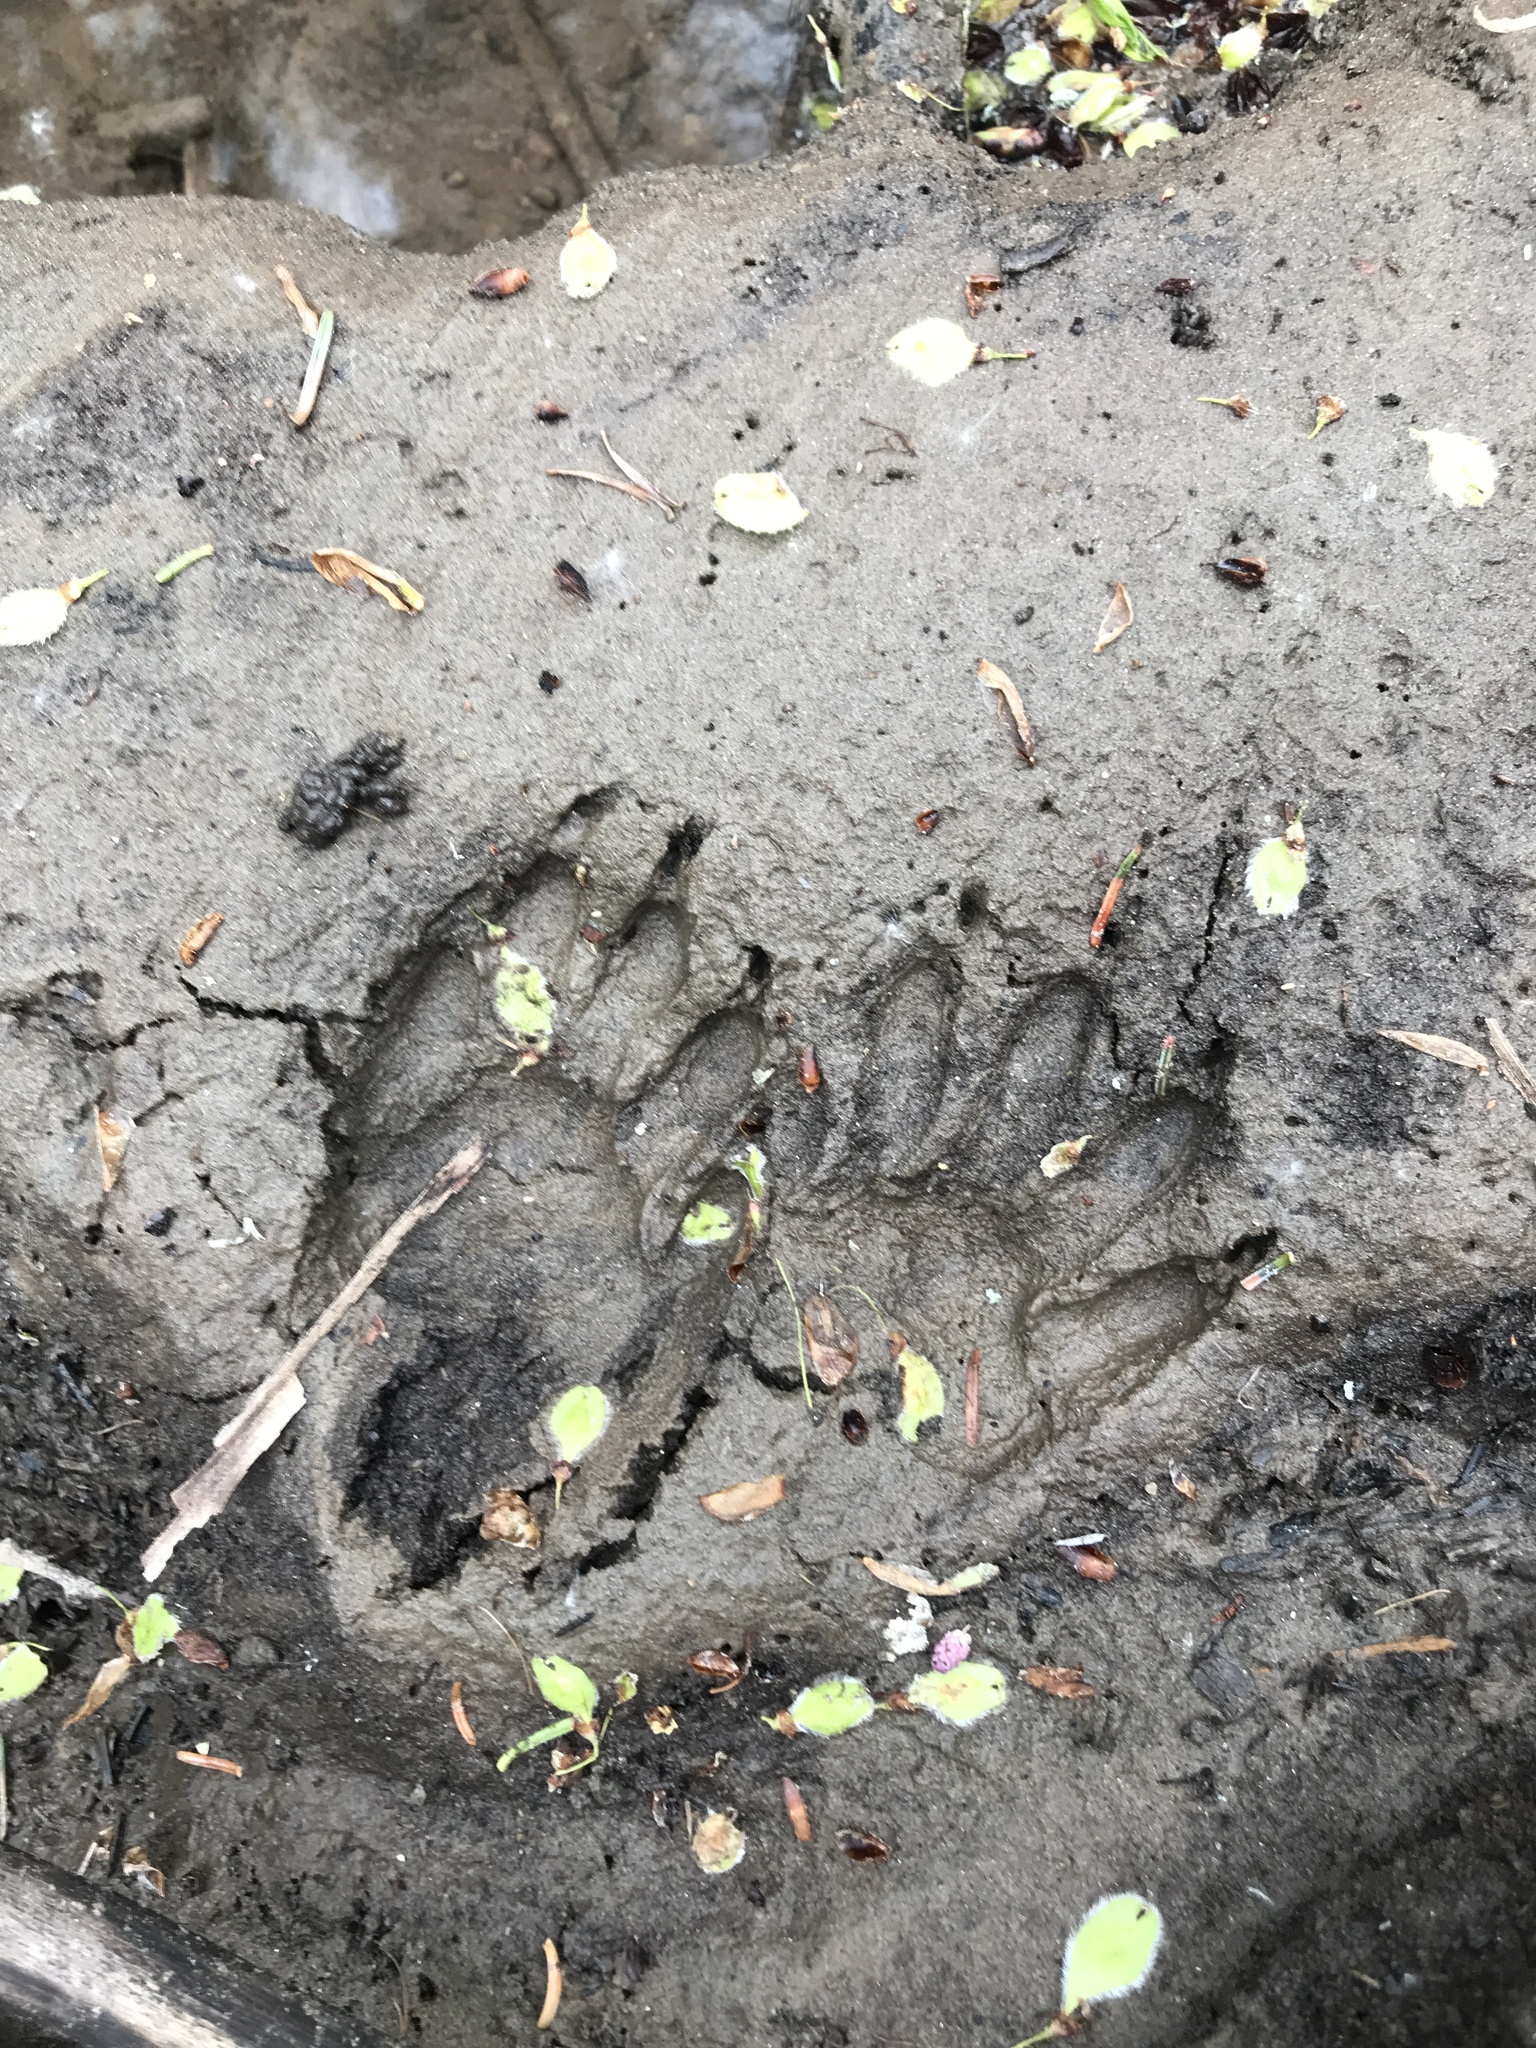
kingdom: Animalia
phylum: Chordata
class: Mammalia
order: Carnivora
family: Procyonidae
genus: Procyon
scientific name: Procyon lotor
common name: Raccoon
